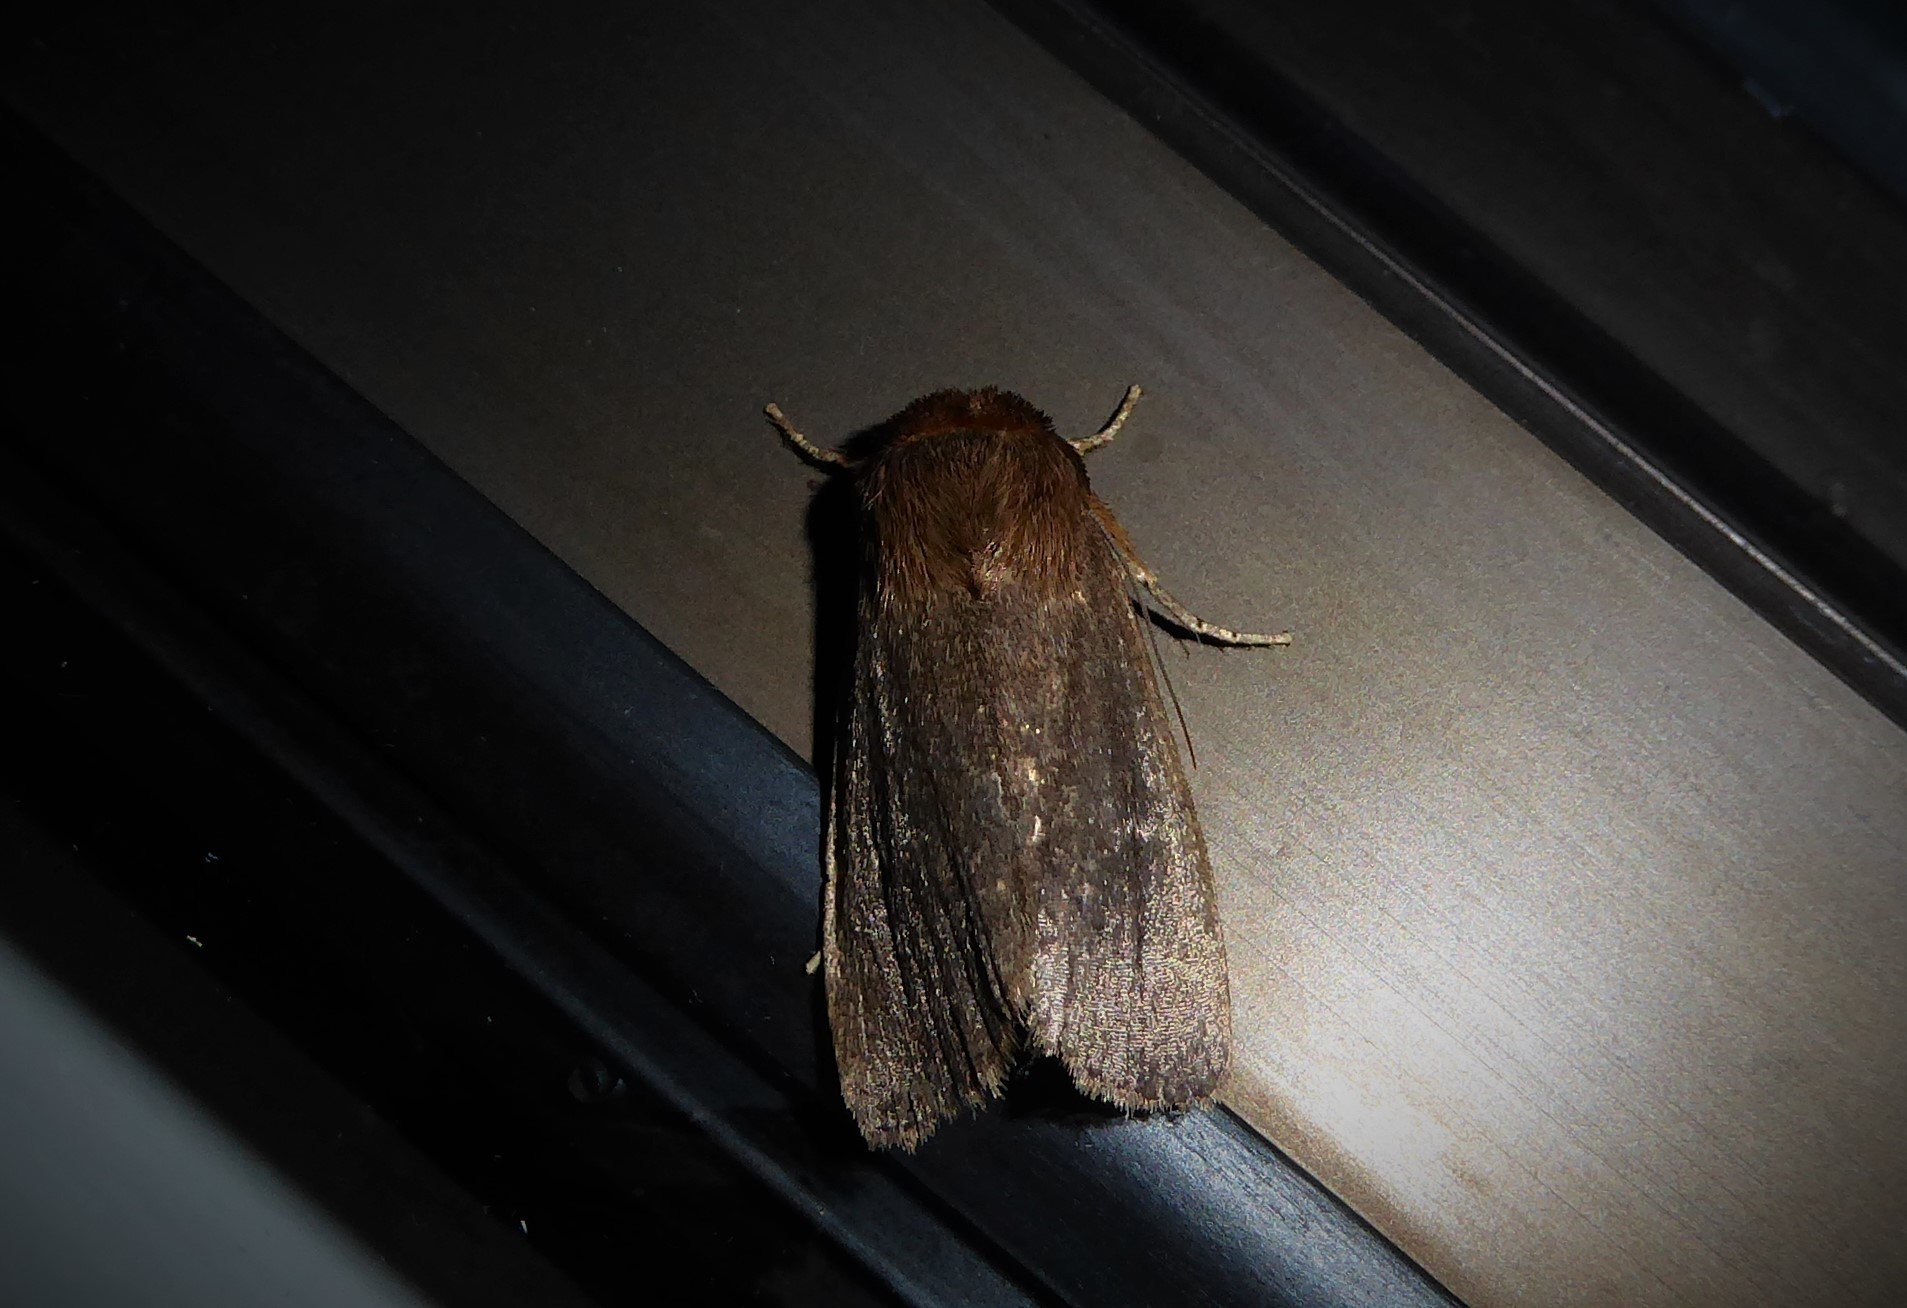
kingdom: Animalia
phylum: Arthropoda
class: Insecta
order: Lepidoptera
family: Noctuidae
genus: Bityla
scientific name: Bityla defigurata
